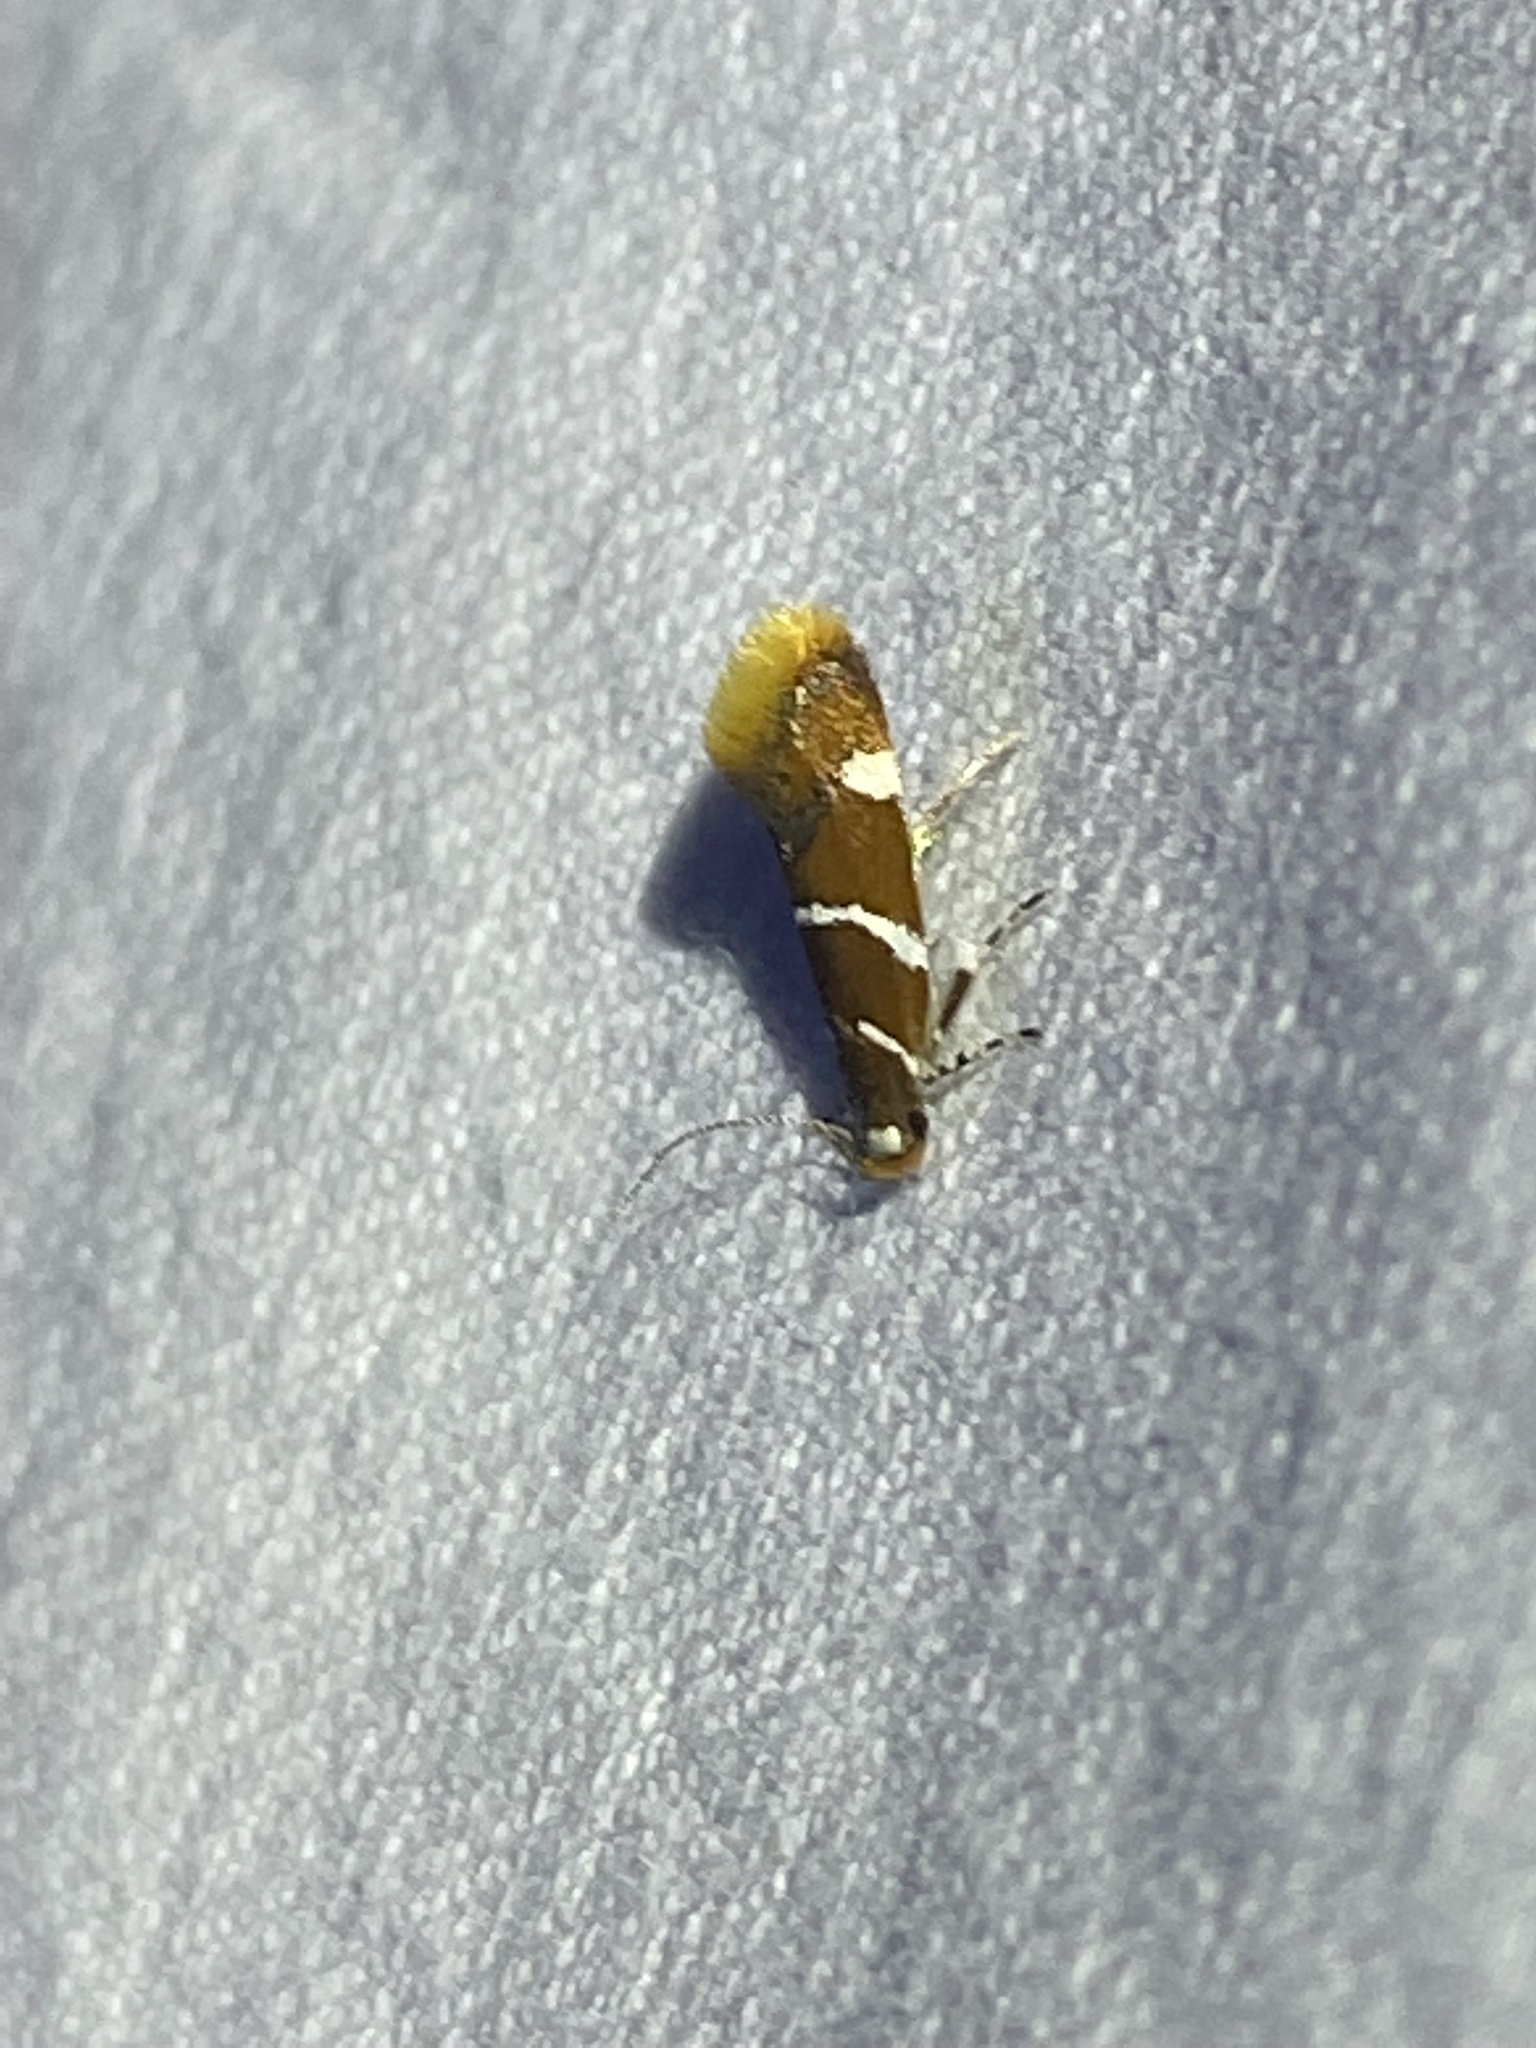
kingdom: Animalia
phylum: Arthropoda
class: Insecta
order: Lepidoptera
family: Oecophoridae
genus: Promalactis
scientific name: Promalactis suzukiella
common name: Moth
